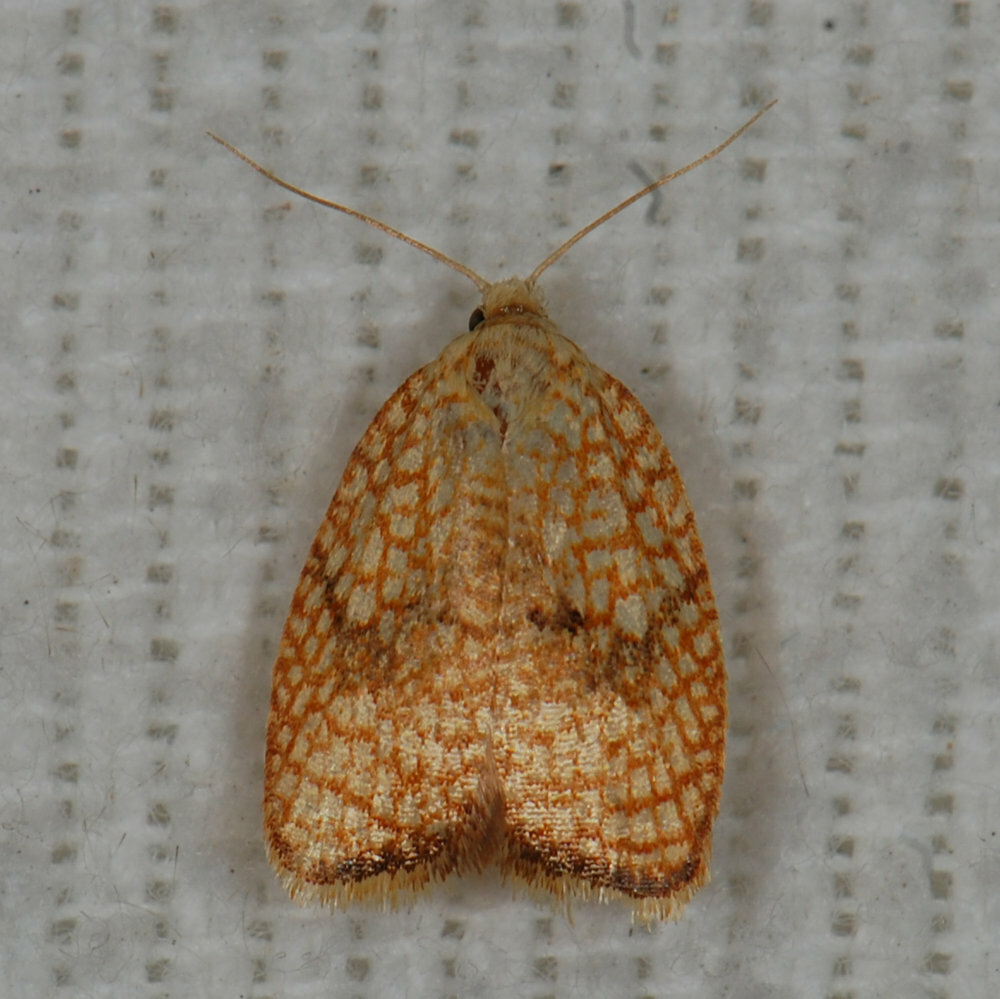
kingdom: Animalia
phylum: Arthropoda
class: Insecta
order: Lepidoptera
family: Tortricidae
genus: Acleris
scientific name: Acleris forsskaleana
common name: Maple button
